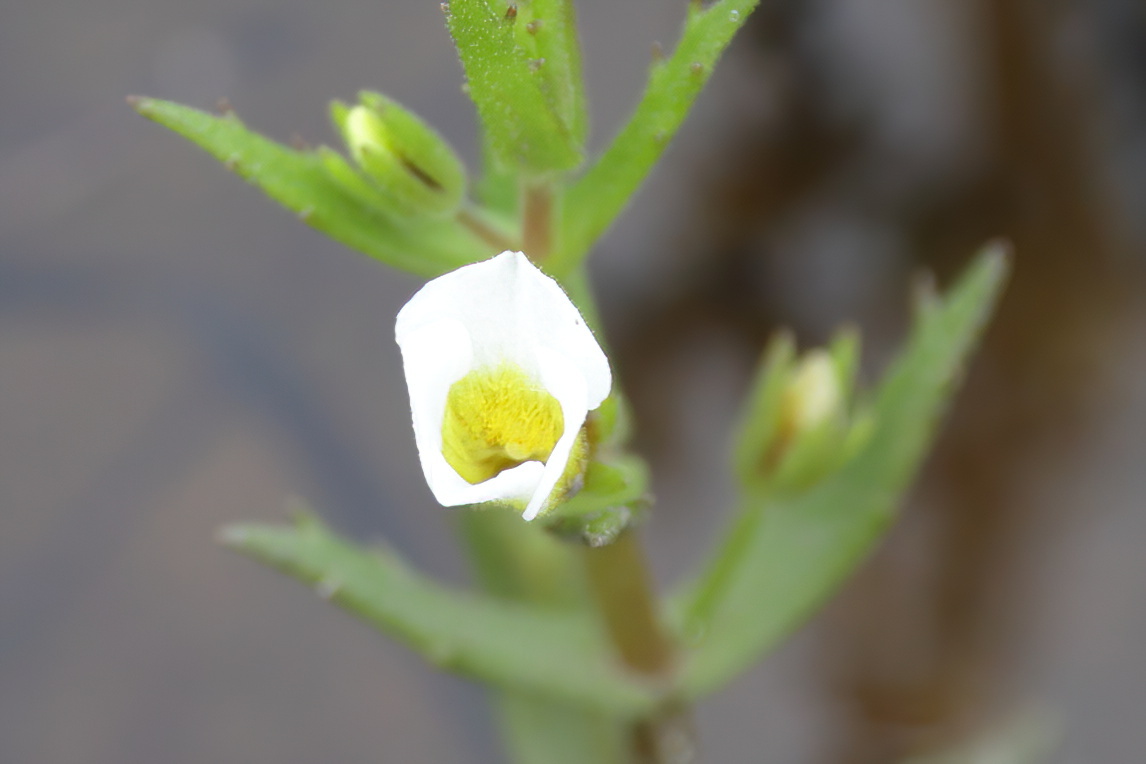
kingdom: Plantae
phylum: Tracheophyta
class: Magnoliopsida
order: Lamiales
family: Plantaginaceae
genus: Gratiola
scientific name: Gratiola neglecta
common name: American hedge-hyssop
